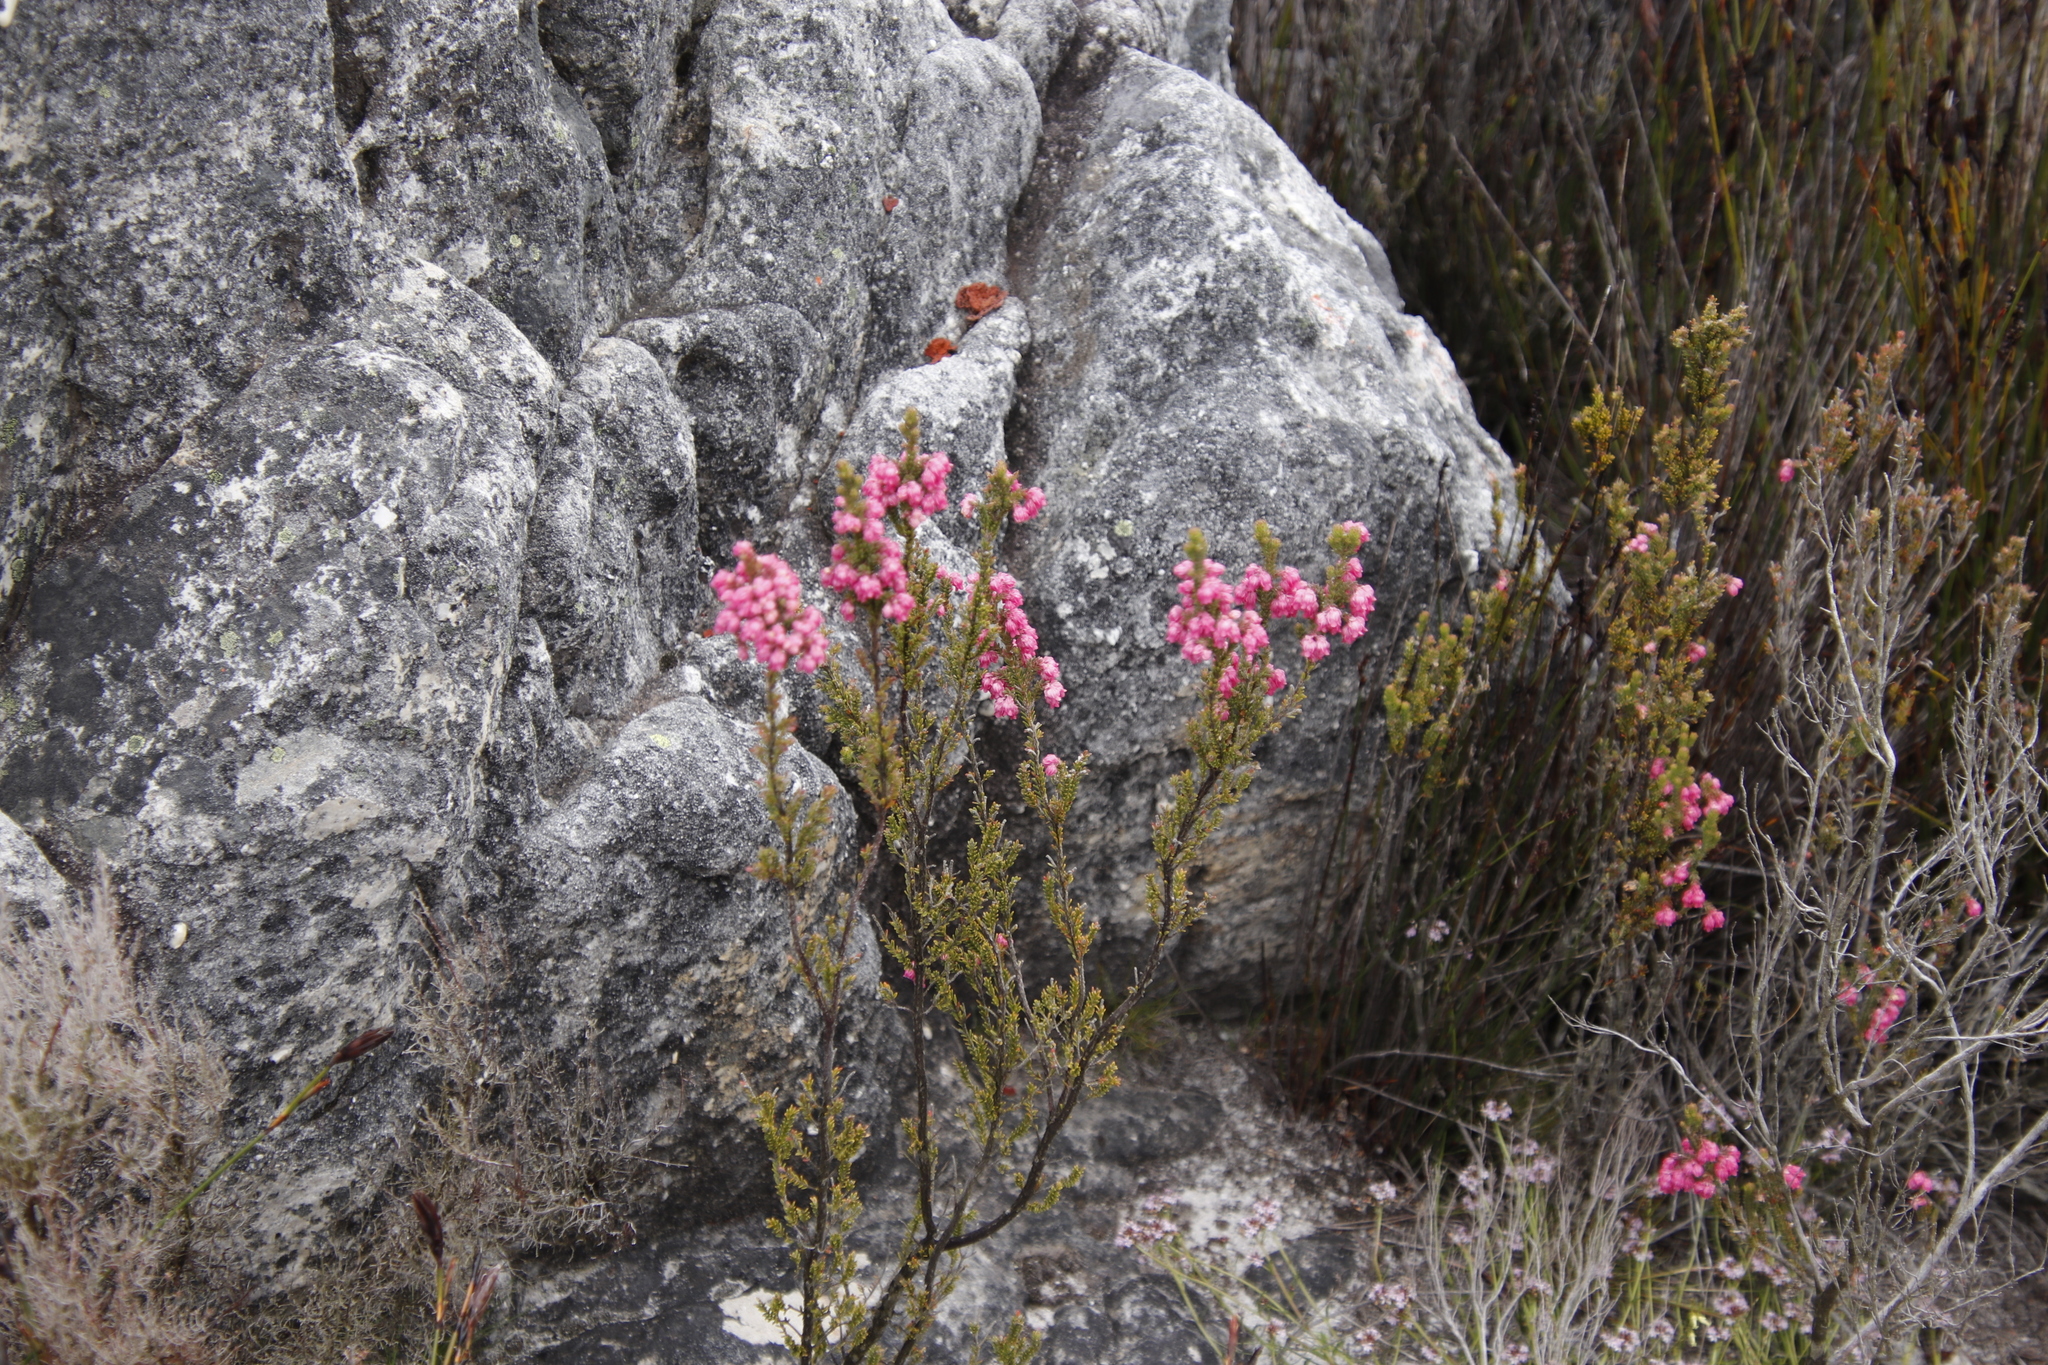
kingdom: Plantae
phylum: Tracheophyta
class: Magnoliopsida
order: Ericales
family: Ericaceae
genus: Erica
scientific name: Erica tegulifolia
